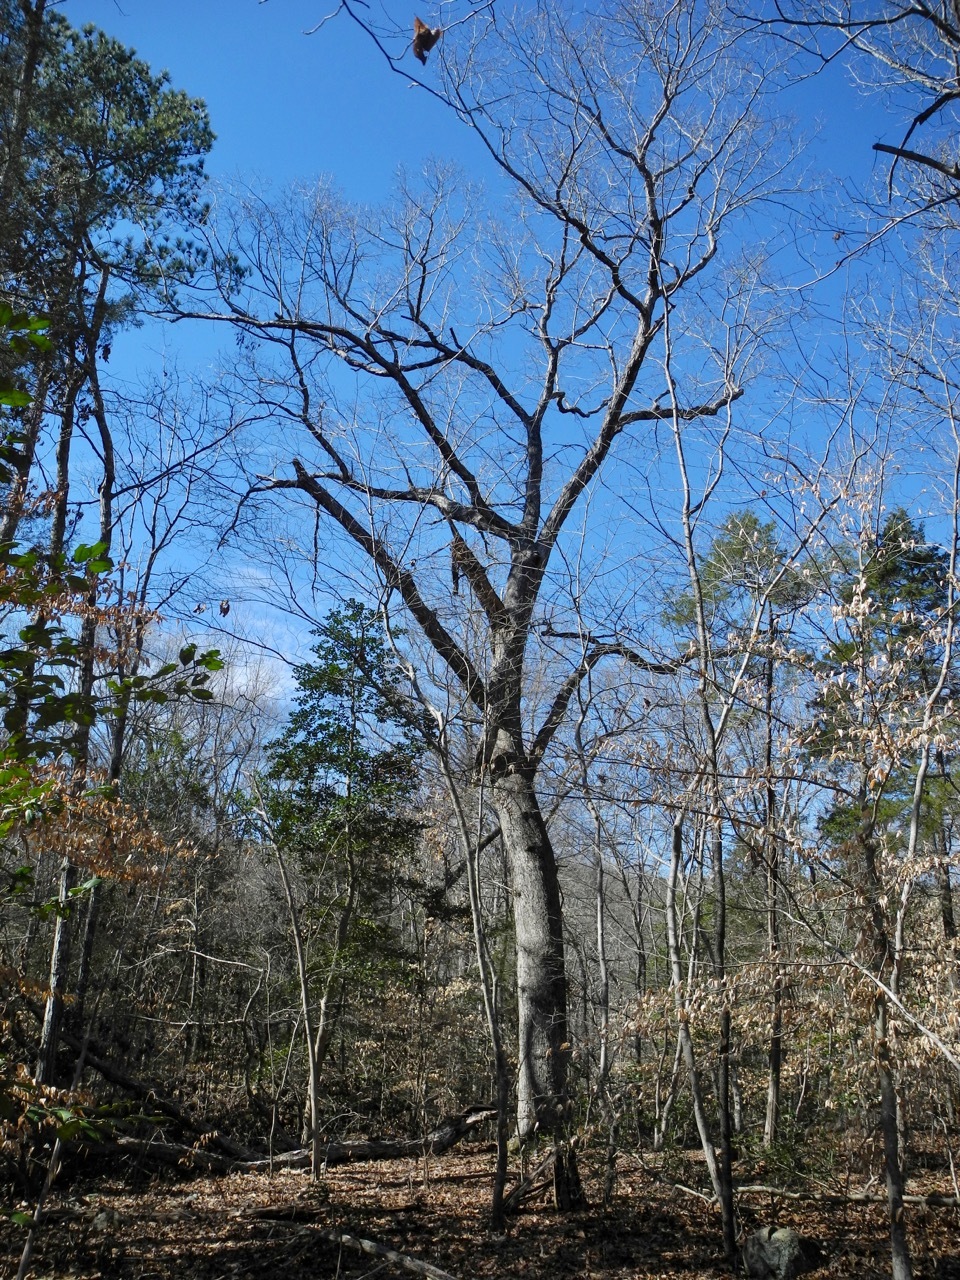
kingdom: Plantae
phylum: Tracheophyta
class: Magnoliopsida
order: Fagales
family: Fagaceae
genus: Quercus
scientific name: Quercus alba
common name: White oak
